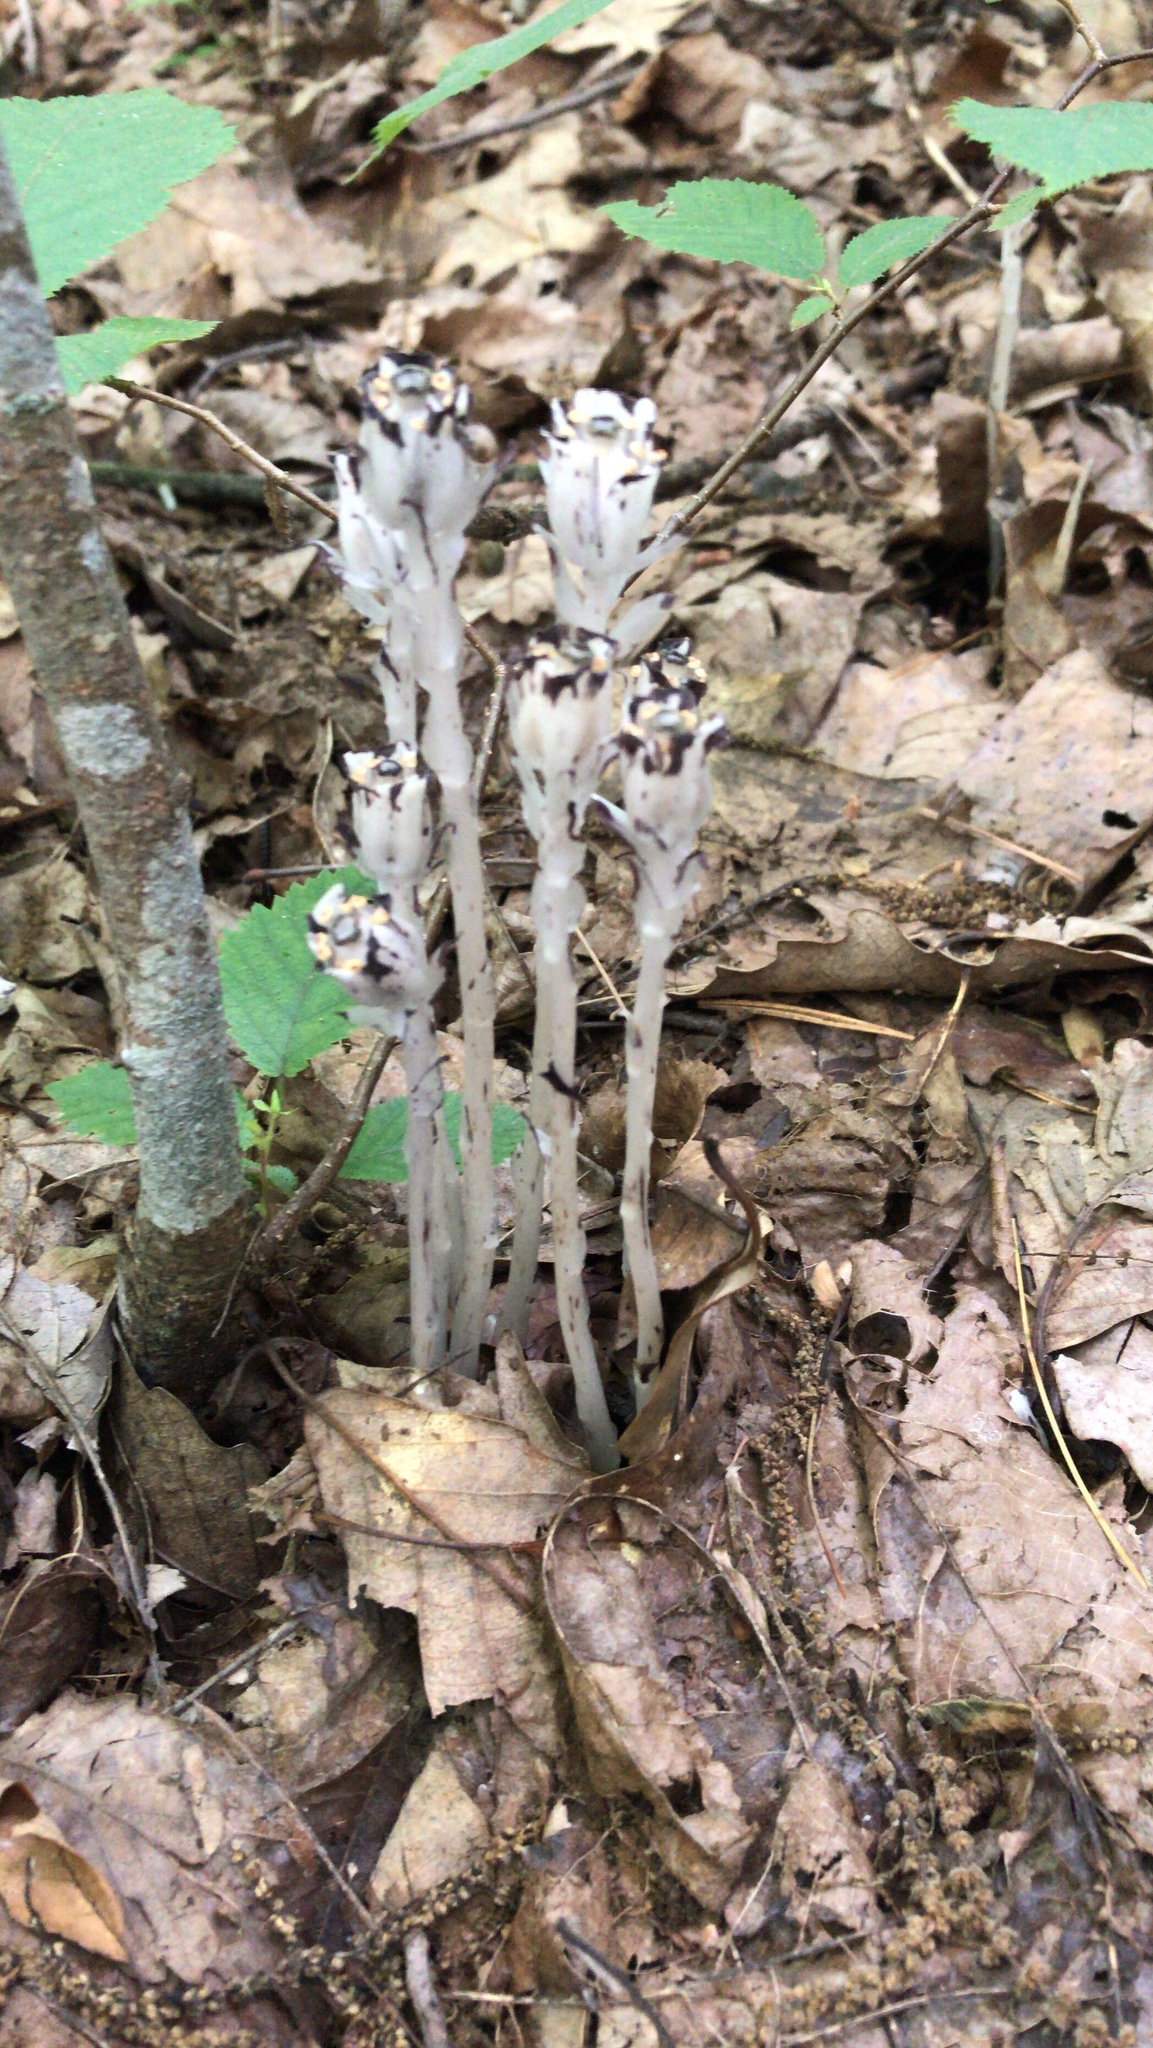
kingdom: Plantae
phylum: Tracheophyta
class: Magnoliopsida
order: Ericales
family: Ericaceae
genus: Monotropa
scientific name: Monotropa uniflora
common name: Convulsion root
